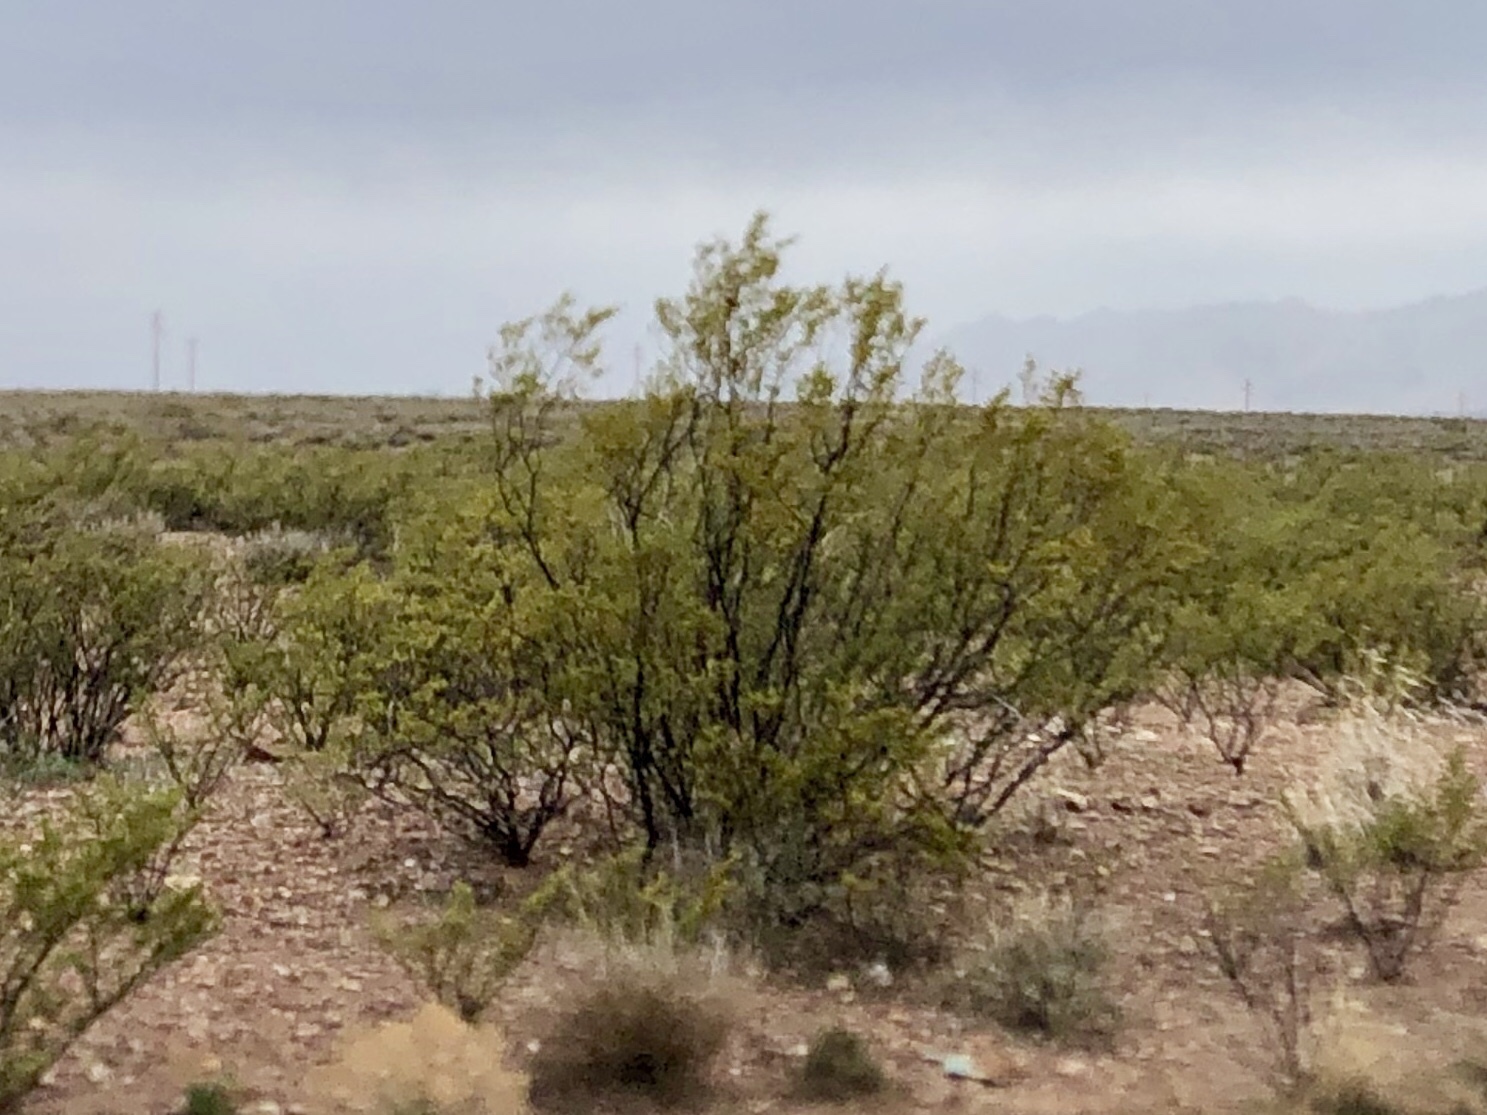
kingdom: Plantae
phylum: Tracheophyta
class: Magnoliopsida
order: Zygophyllales
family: Zygophyllaceae
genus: Larrea
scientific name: Larrea tridentata
